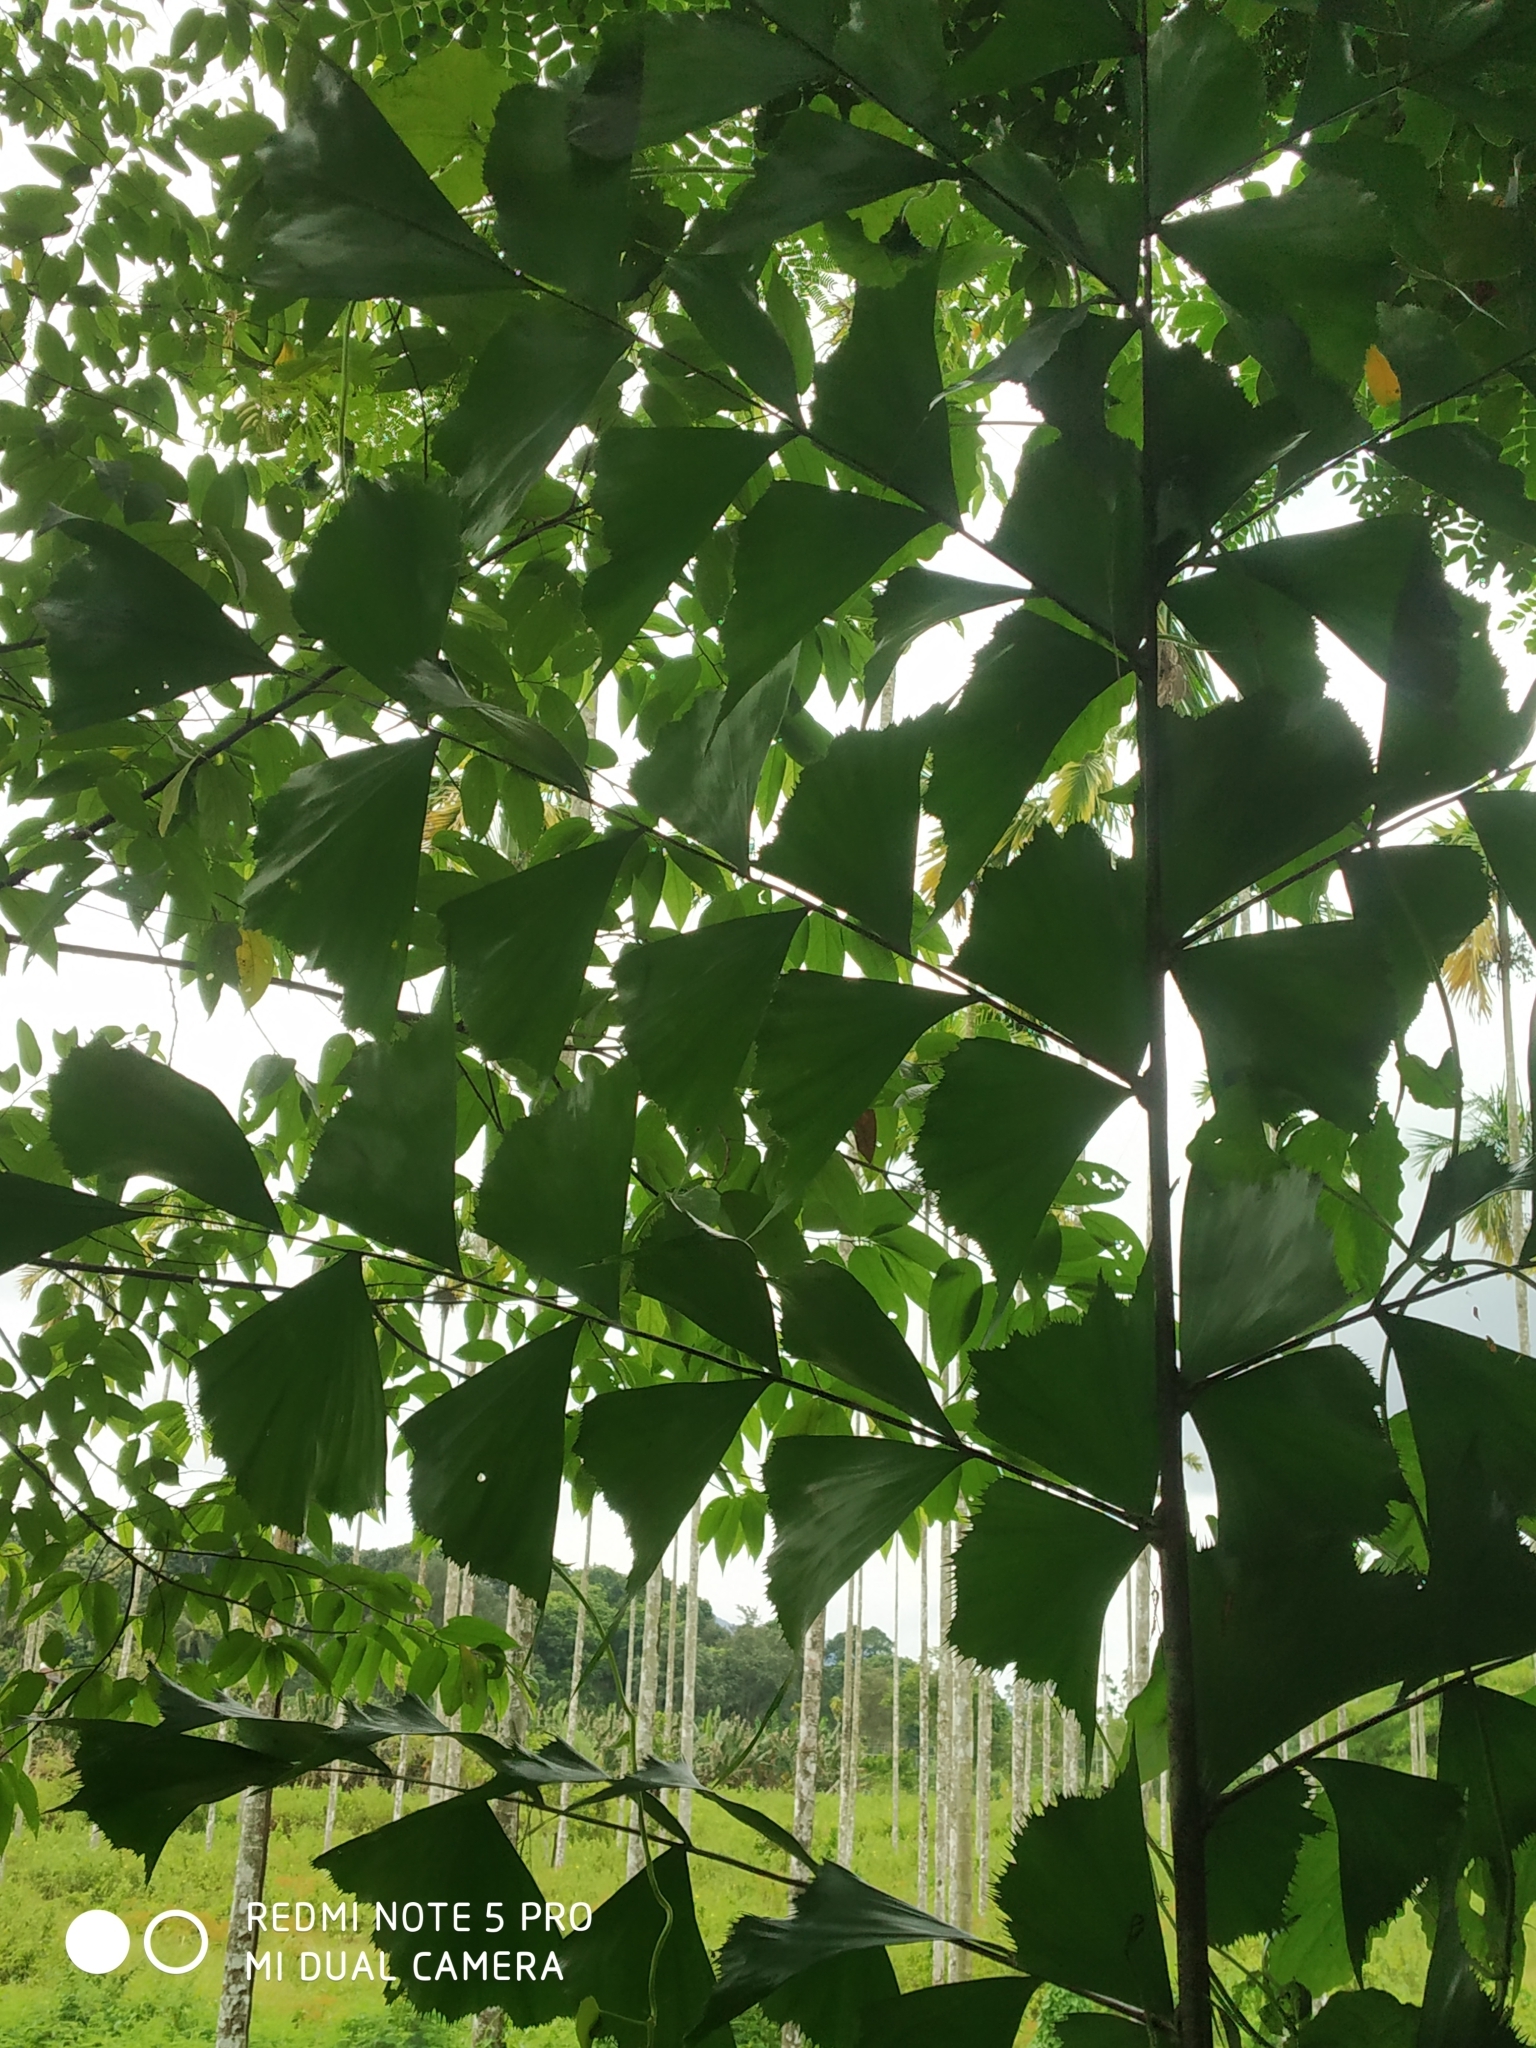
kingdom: Plantae
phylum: Tracheophyta
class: Liliopsida
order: Arecales
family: Arecaceae
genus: Caryota
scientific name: Caryota urens
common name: Jaggery palm
